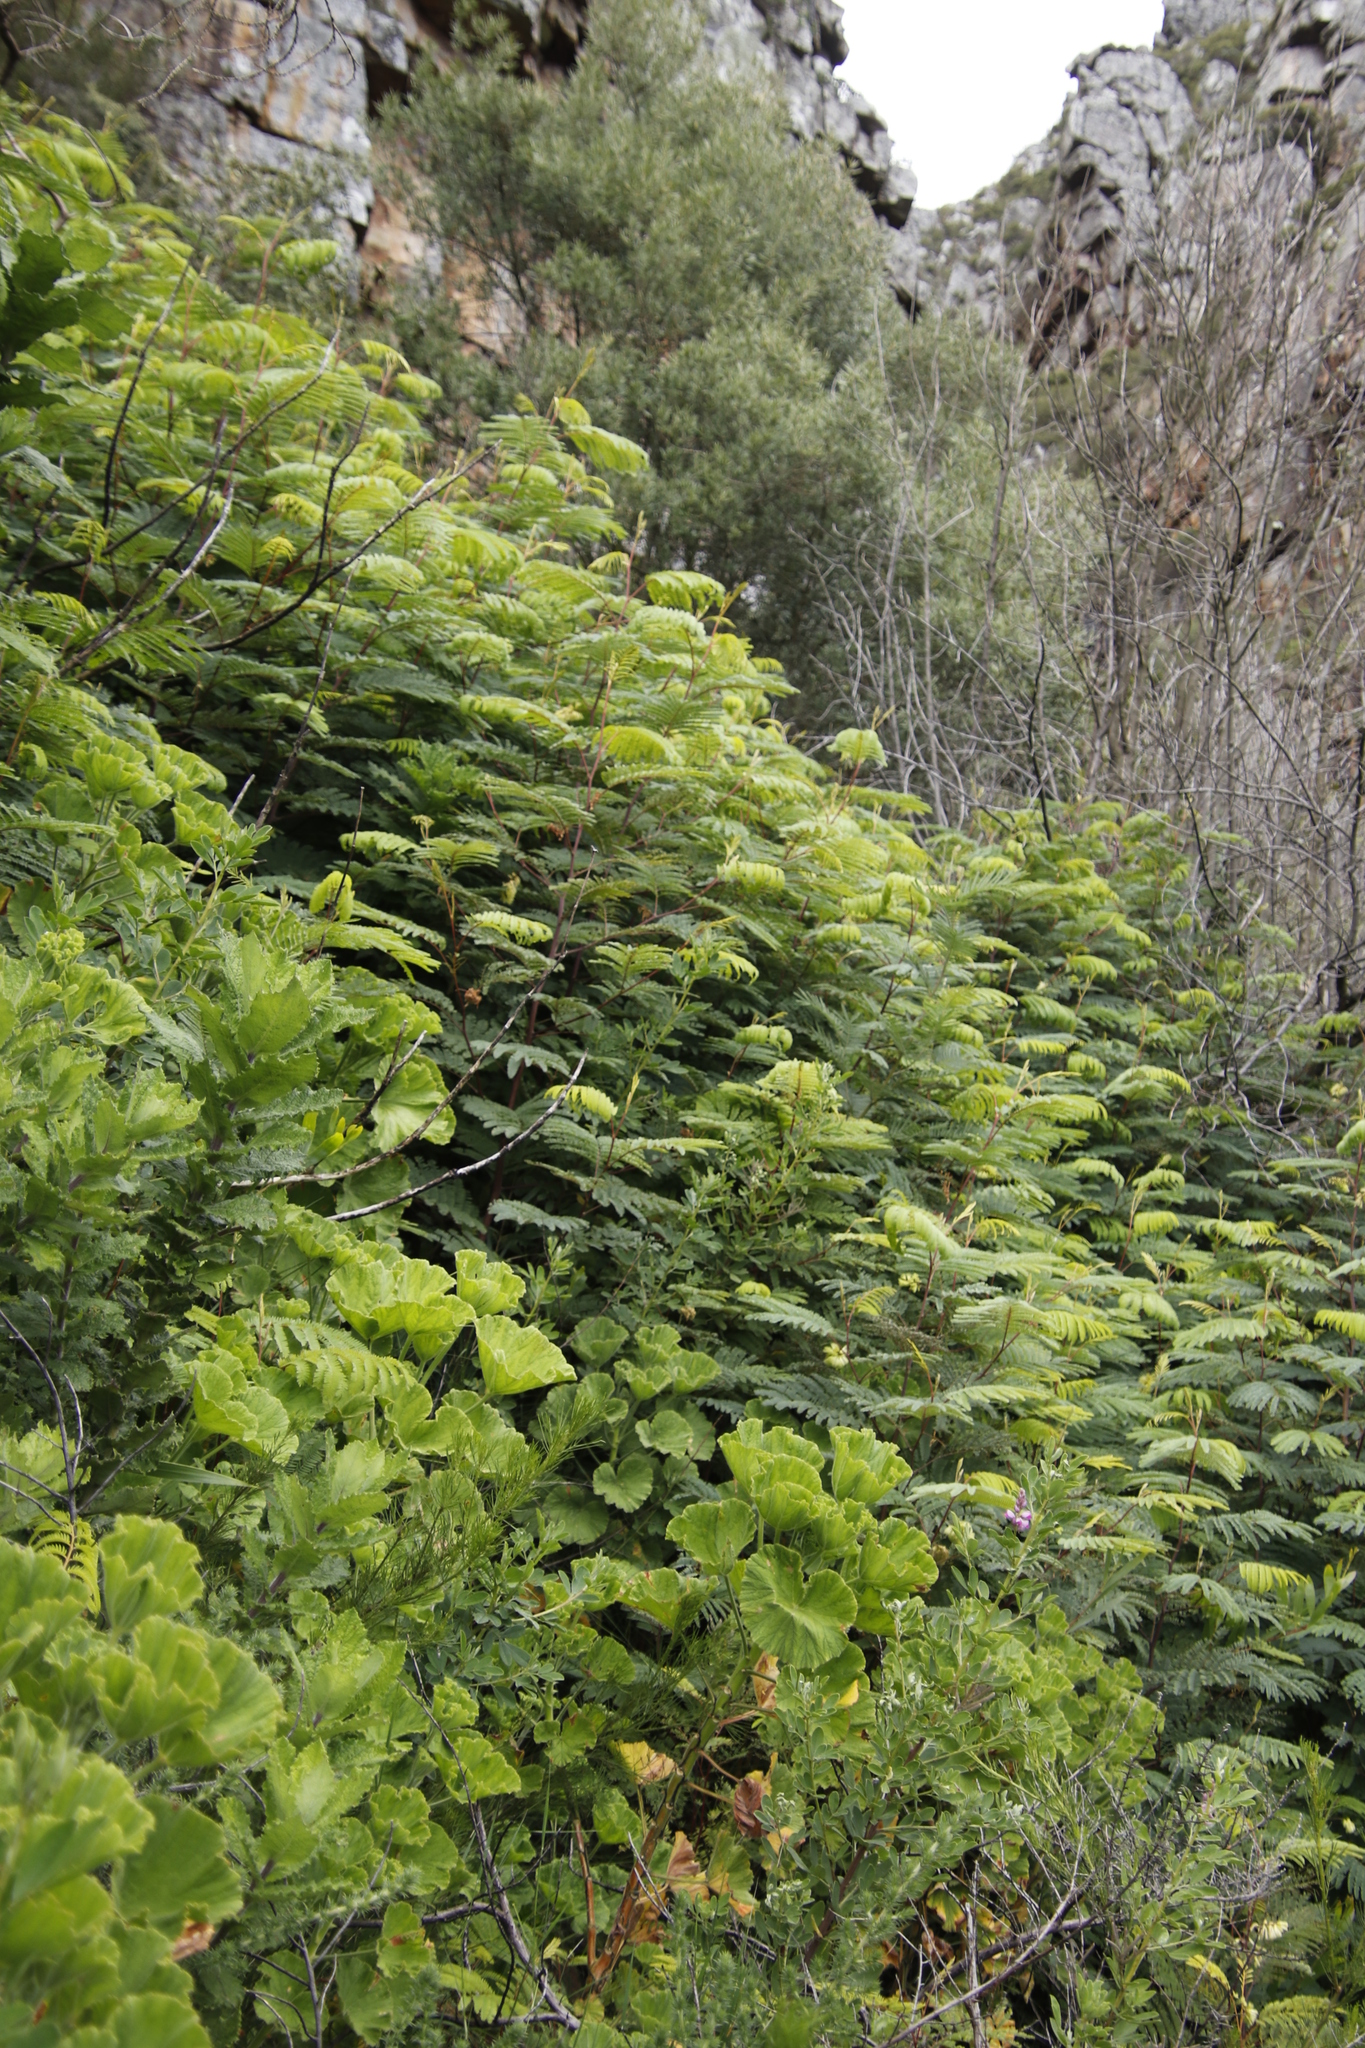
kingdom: Plantae
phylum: Tracheophyta
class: Magnoliopsida
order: Fabales
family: Fabaceae
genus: Paraserianthes
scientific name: Paraserianthes lophantha
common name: Plume albizia
